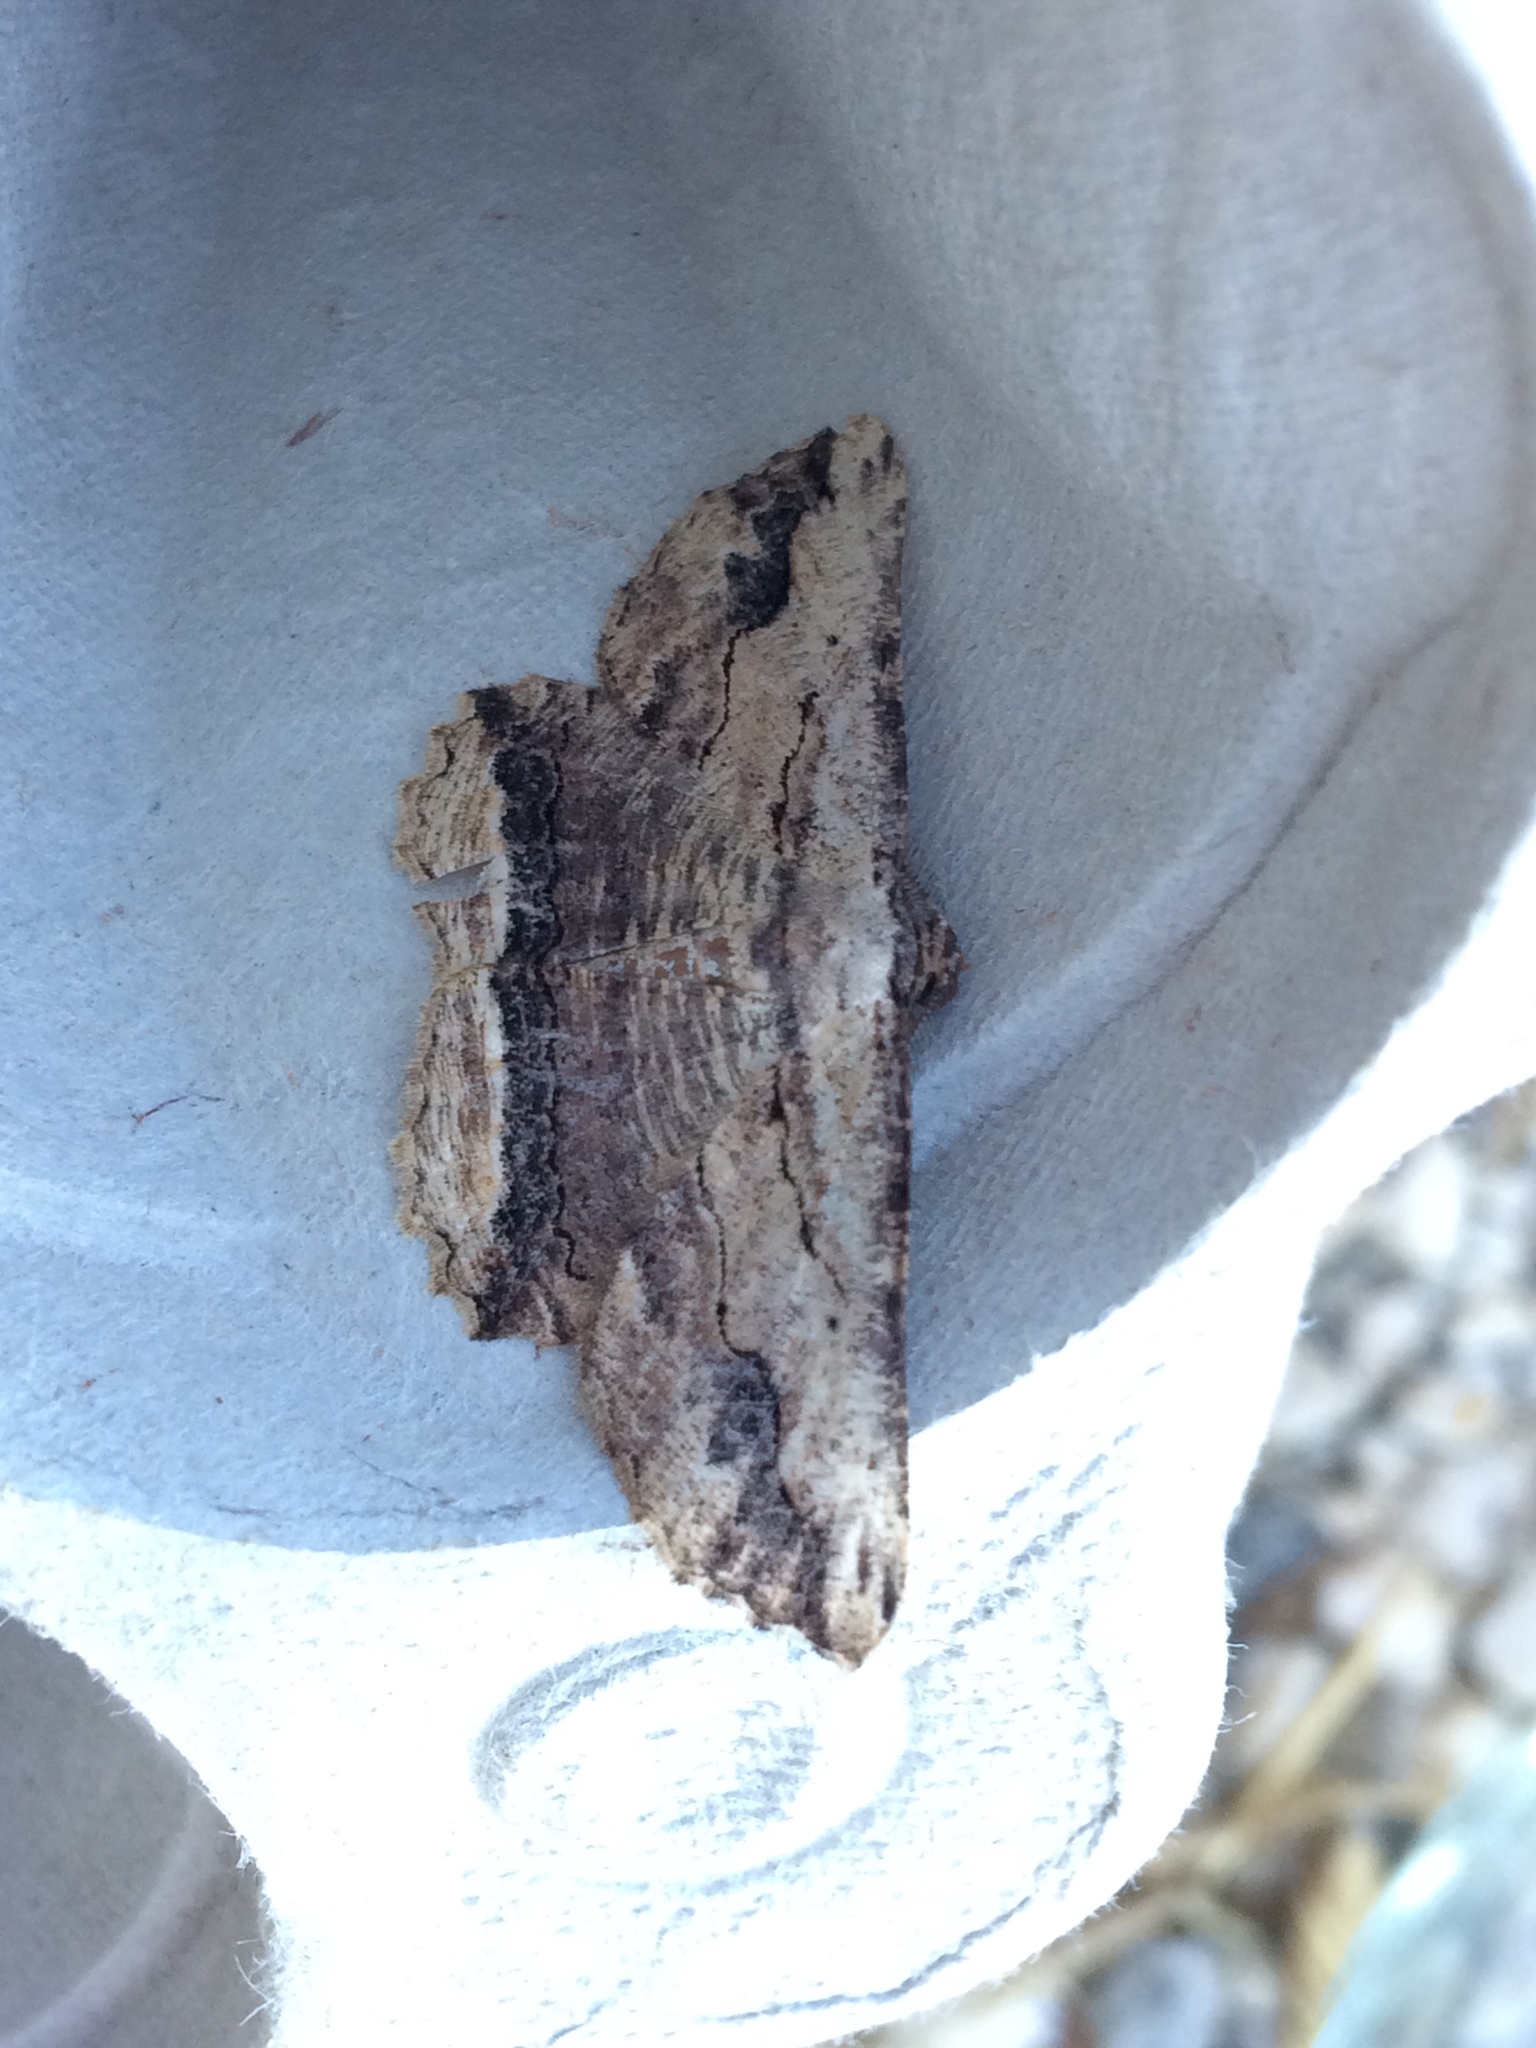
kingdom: Animalia
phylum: Arthropoda
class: Insecta
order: Lepidoptera
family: Geometridae
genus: Menophra
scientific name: Menophra abruptaria
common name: Waved umber
